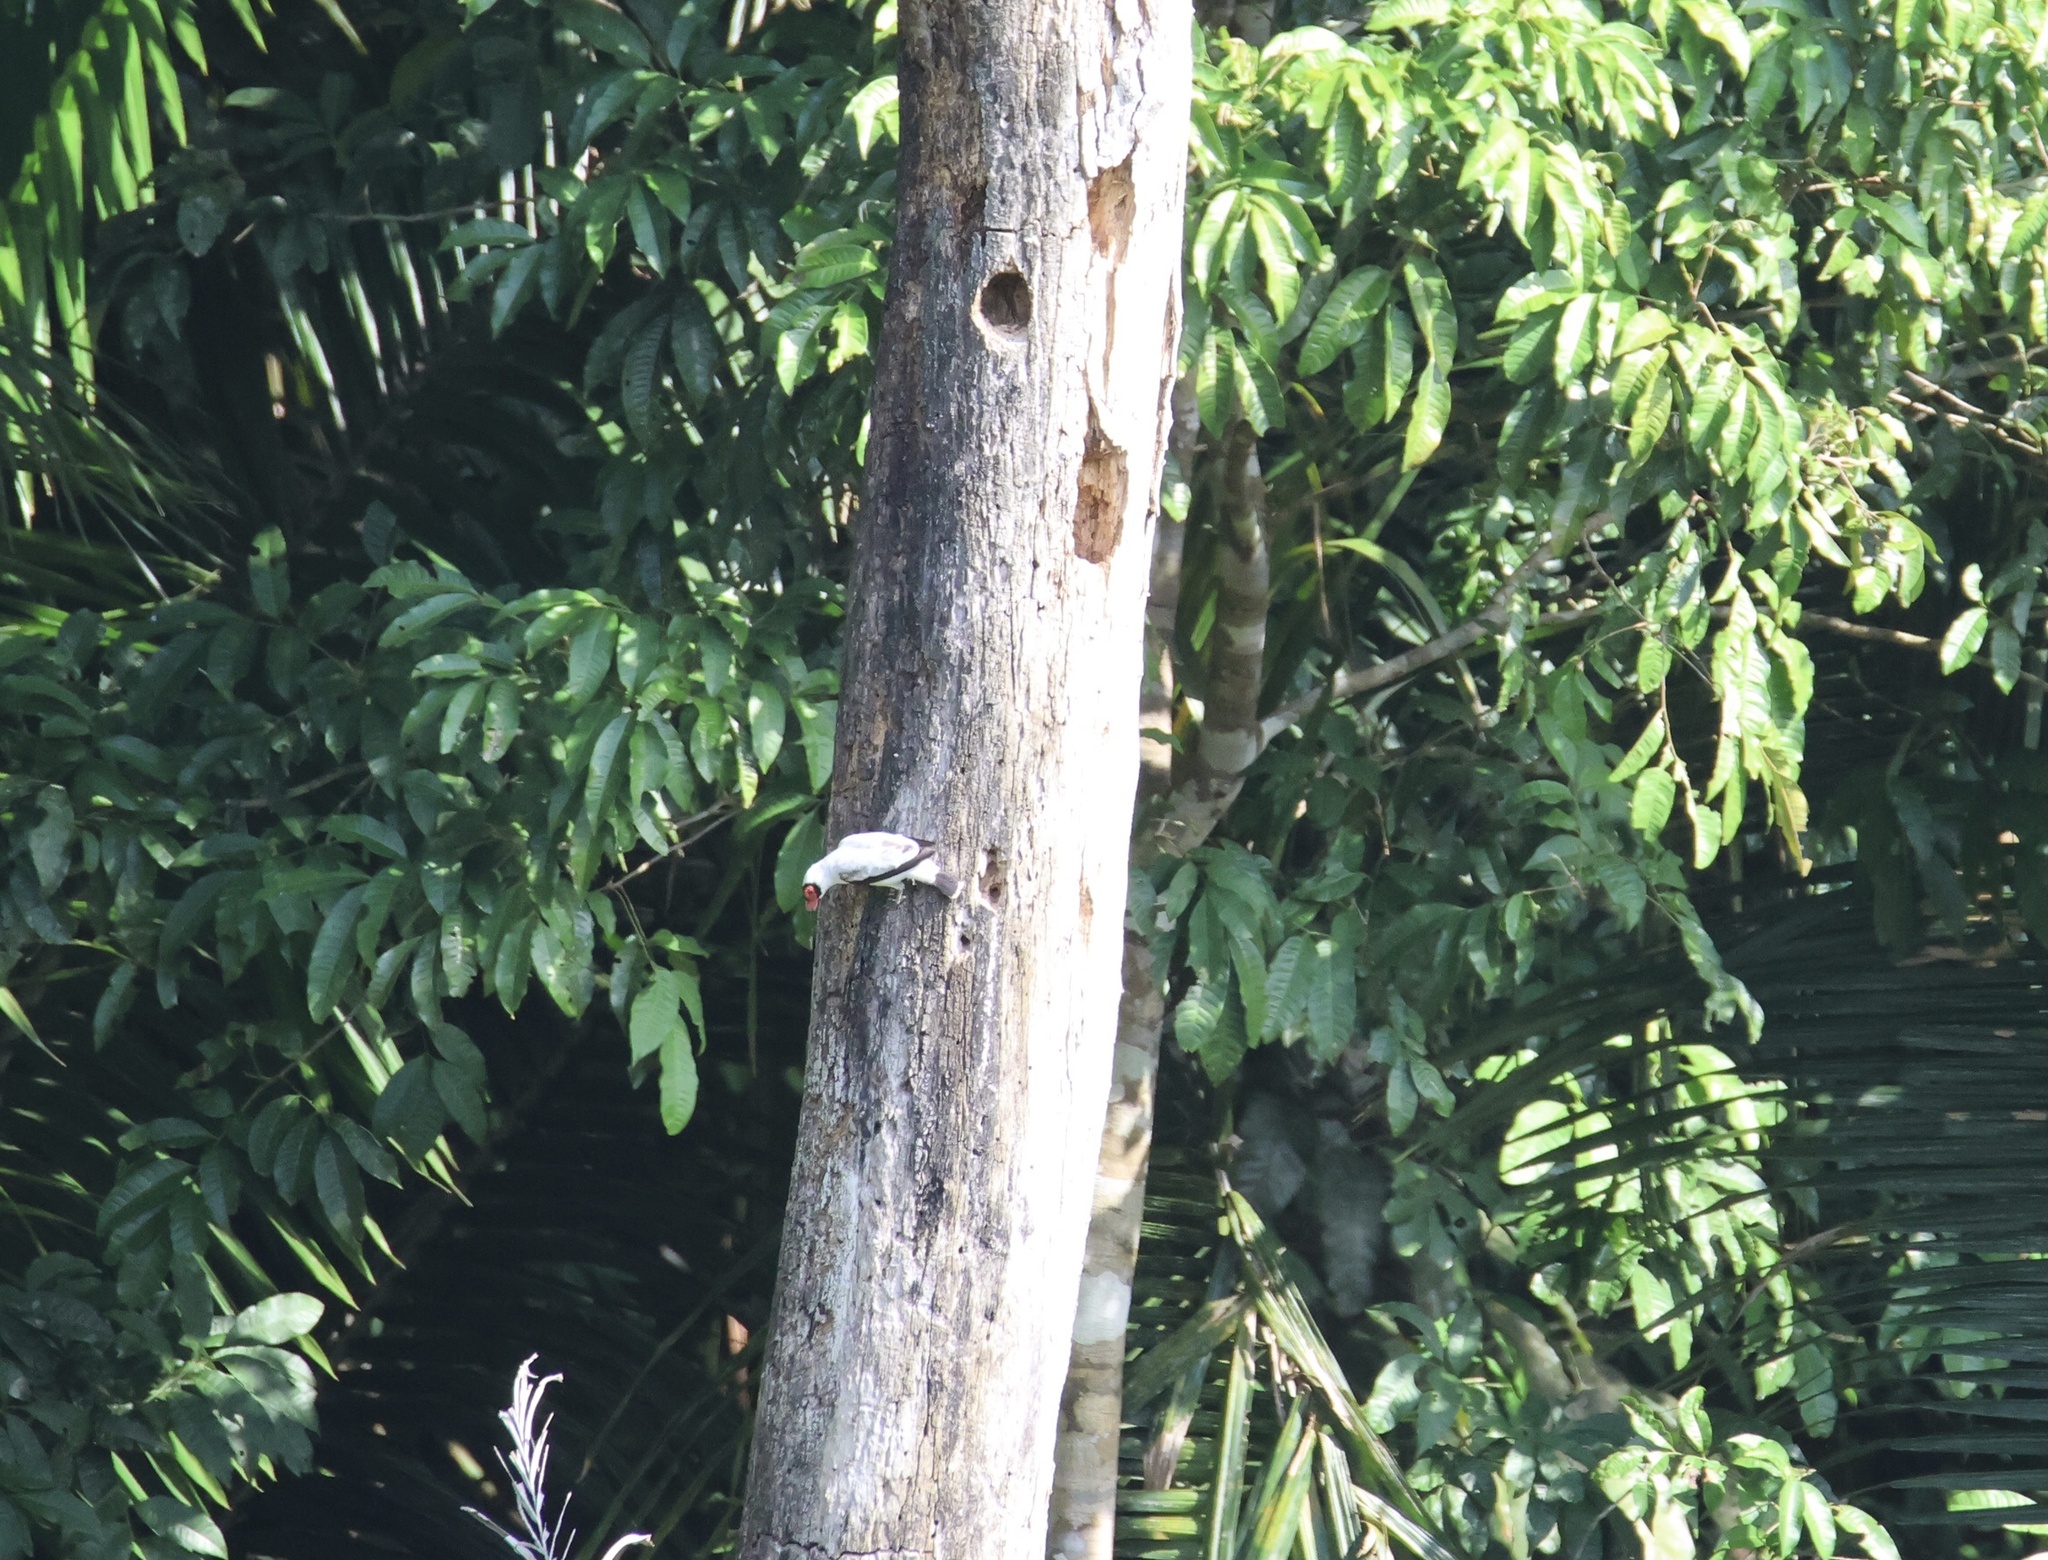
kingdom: Animalia
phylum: Chordata
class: Aves
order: Passeriformes
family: Cotingidae
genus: Tityra
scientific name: Tityra semifasciata
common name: Masked tityra
